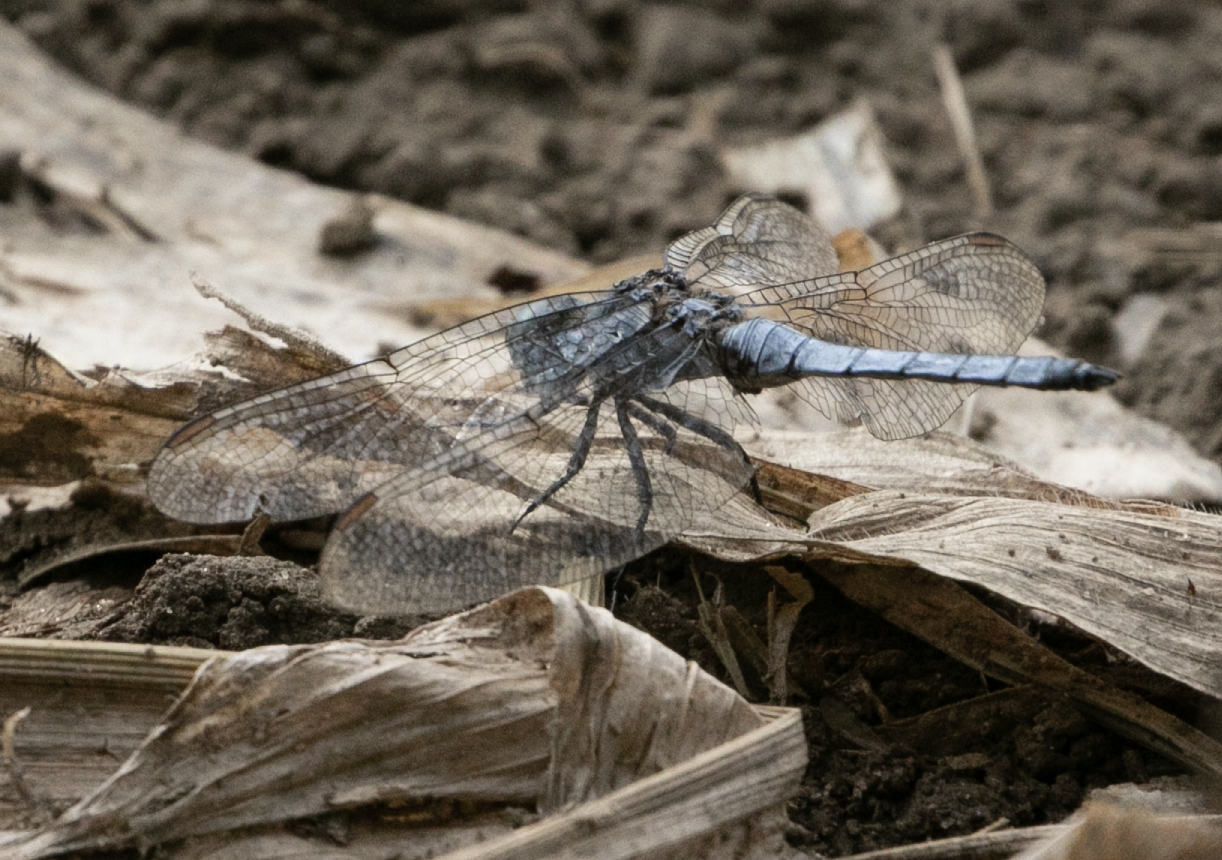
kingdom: Animalia
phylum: Arthropoda
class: Insecta
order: Odonata
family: Libellulidae
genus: Orthetrum
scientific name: Orthetrum coerulescens
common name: Keeled skimmer
